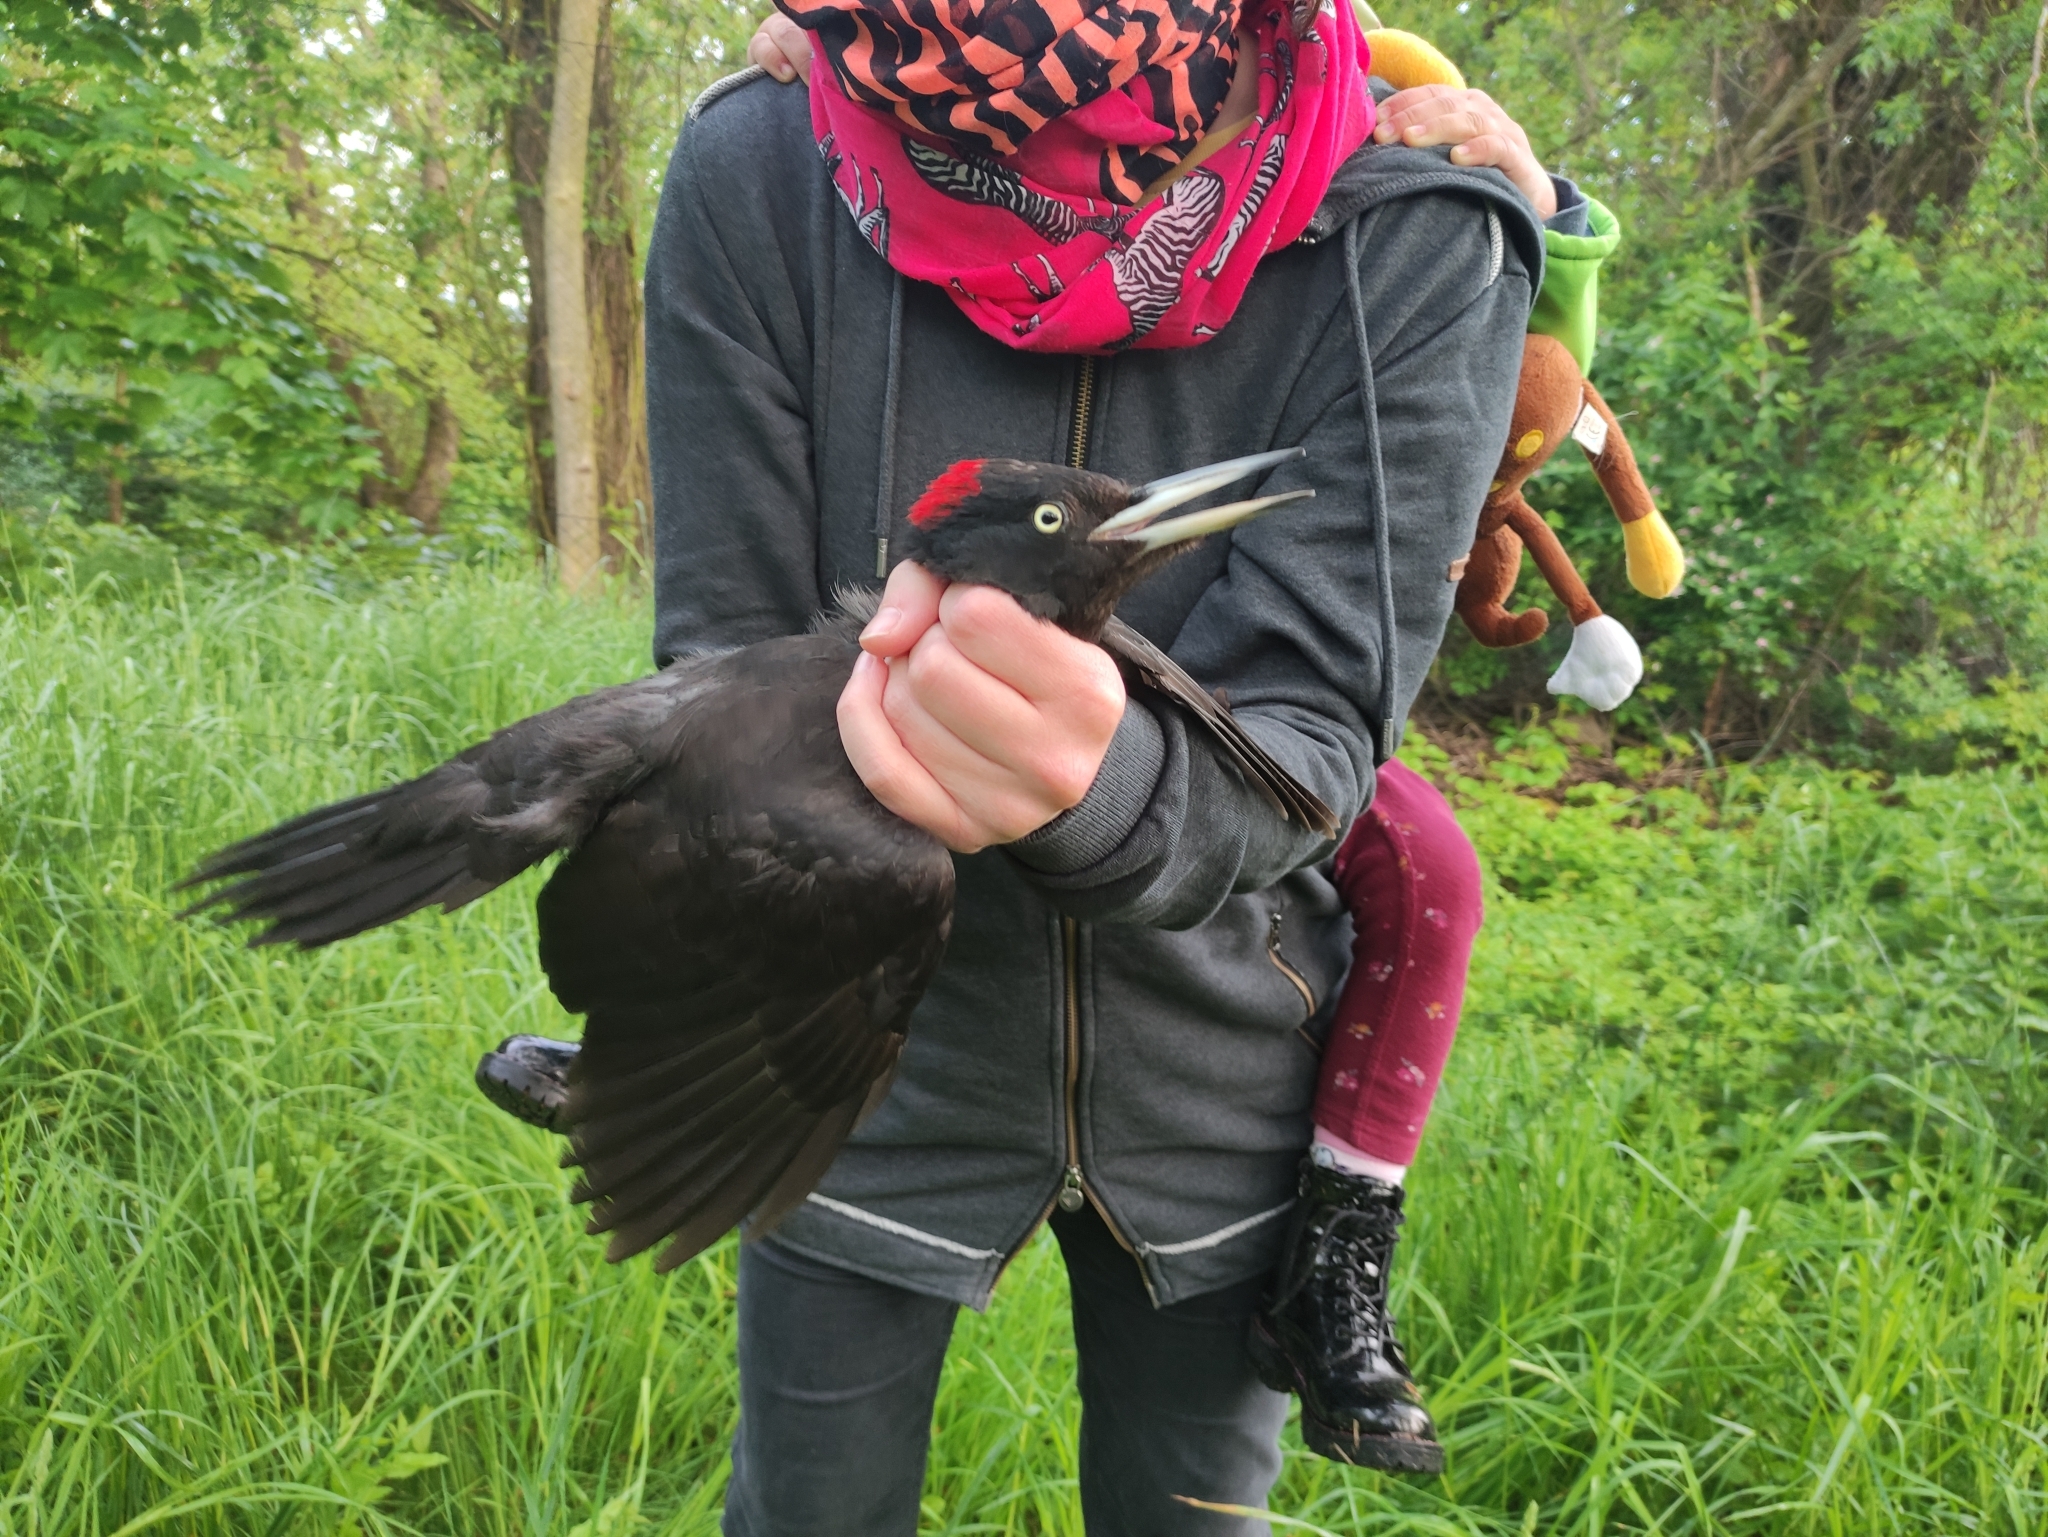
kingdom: Animalia
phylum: Chordata
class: Aves
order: Piciformes
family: Picidae
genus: Dryocopus
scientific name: Dryocopus martius
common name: Black woodpecker
